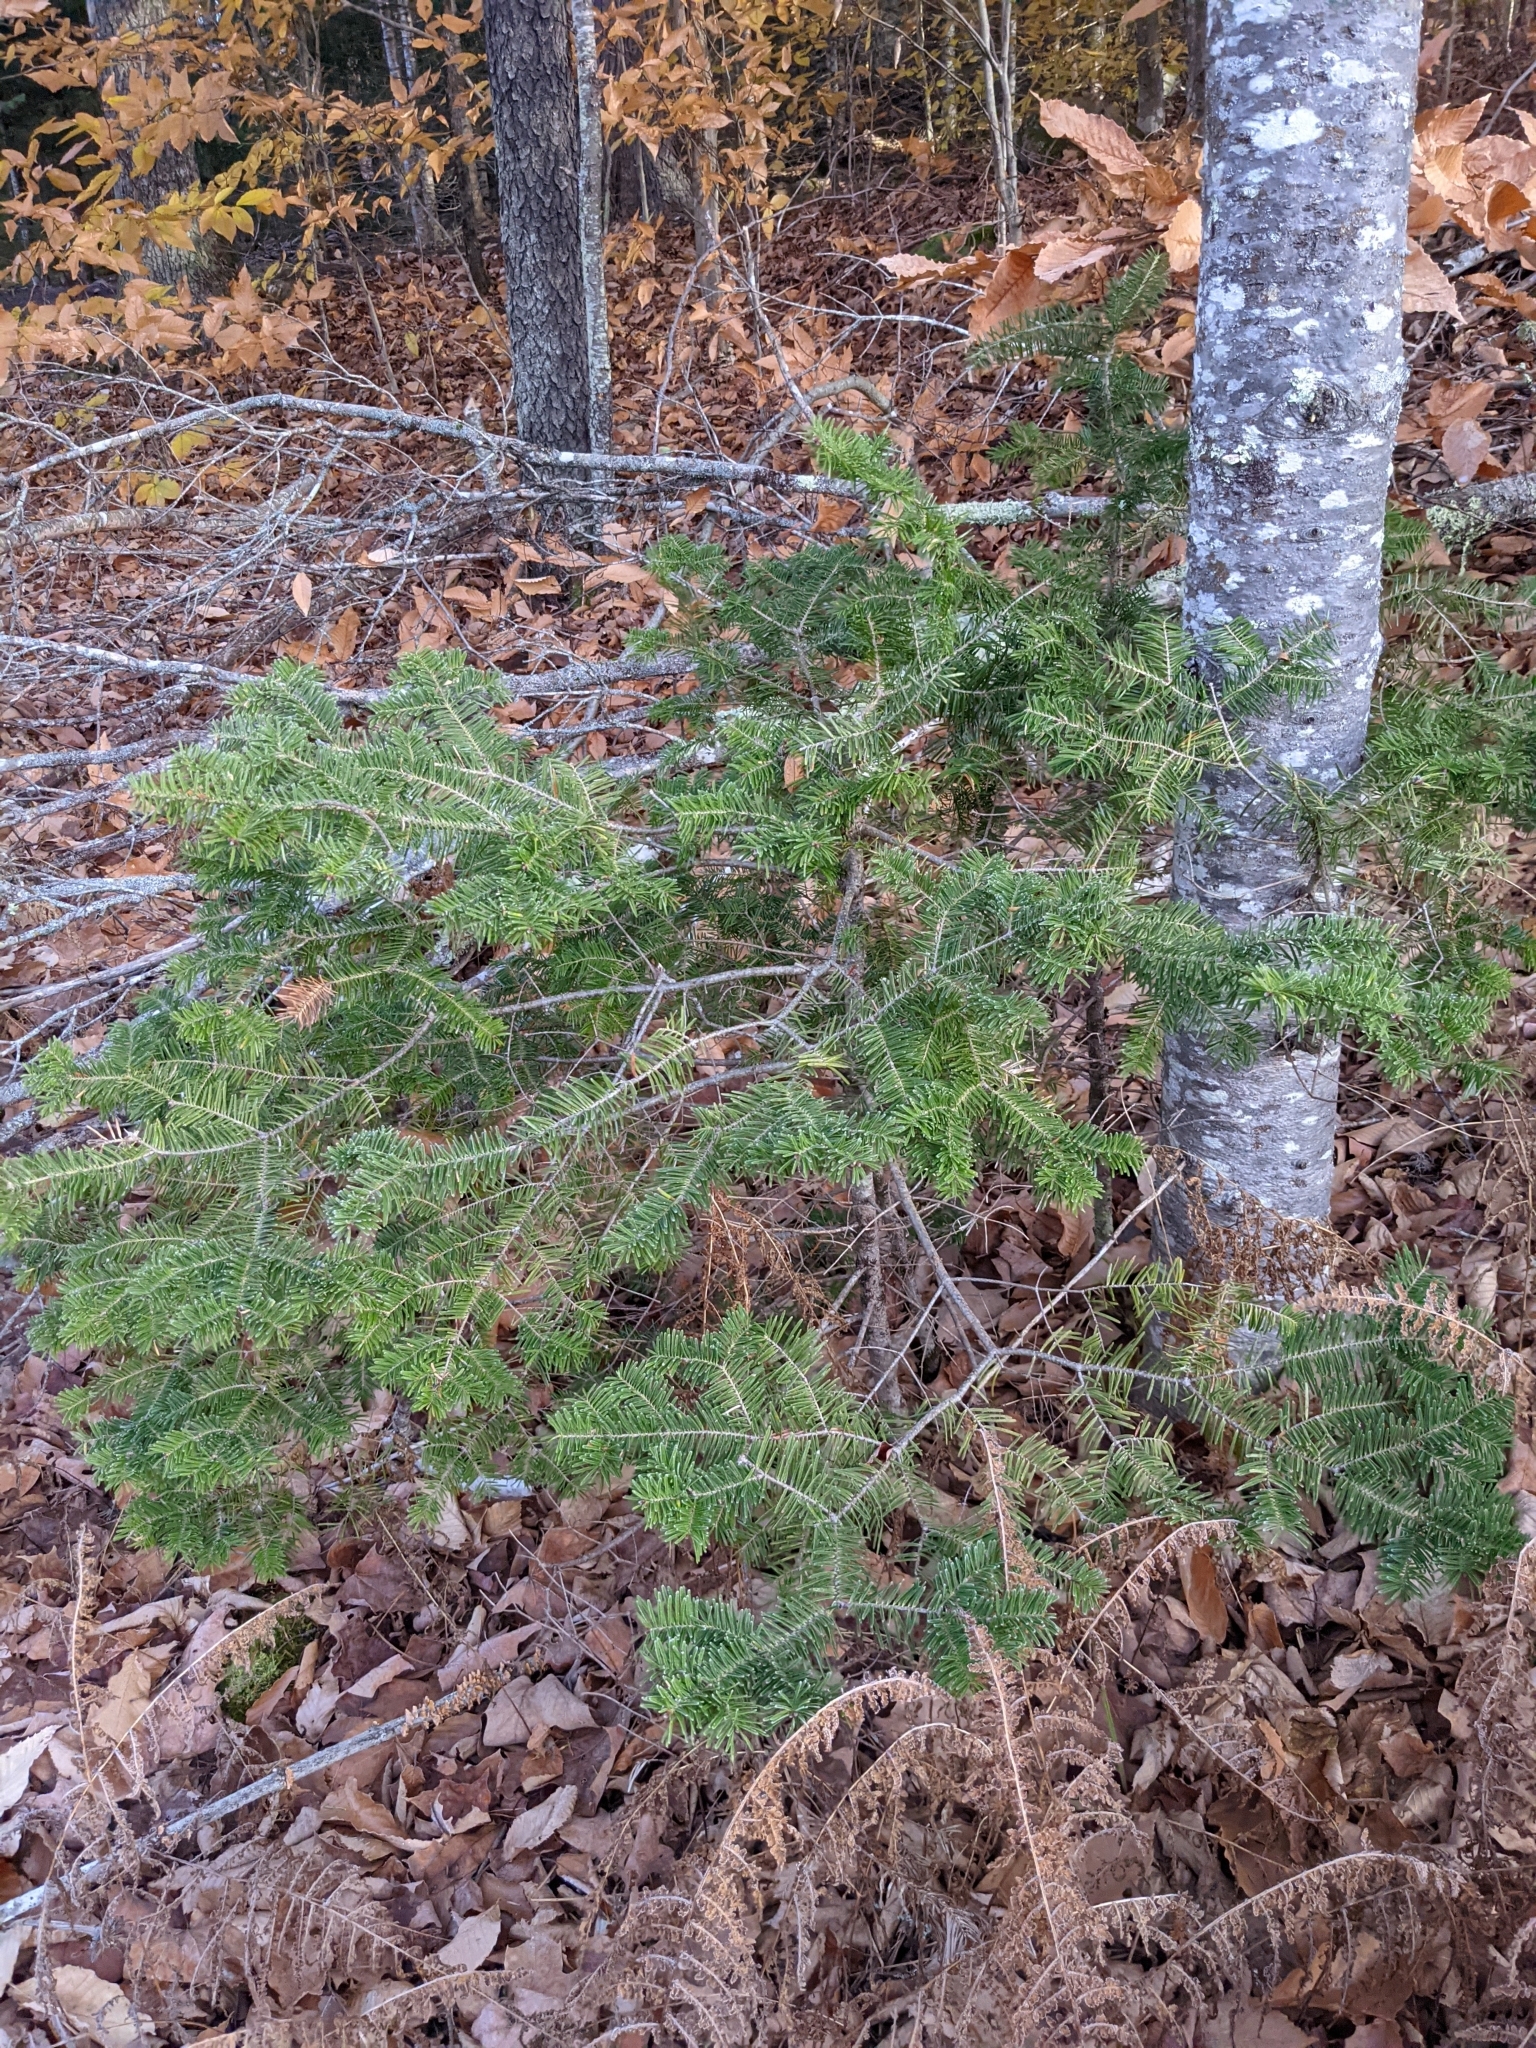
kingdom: Plantae
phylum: Tracheophyta
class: Pinopsida
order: Pinales
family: Pinaceae
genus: Abies
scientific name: Abies balsamea
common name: Balsam fir
